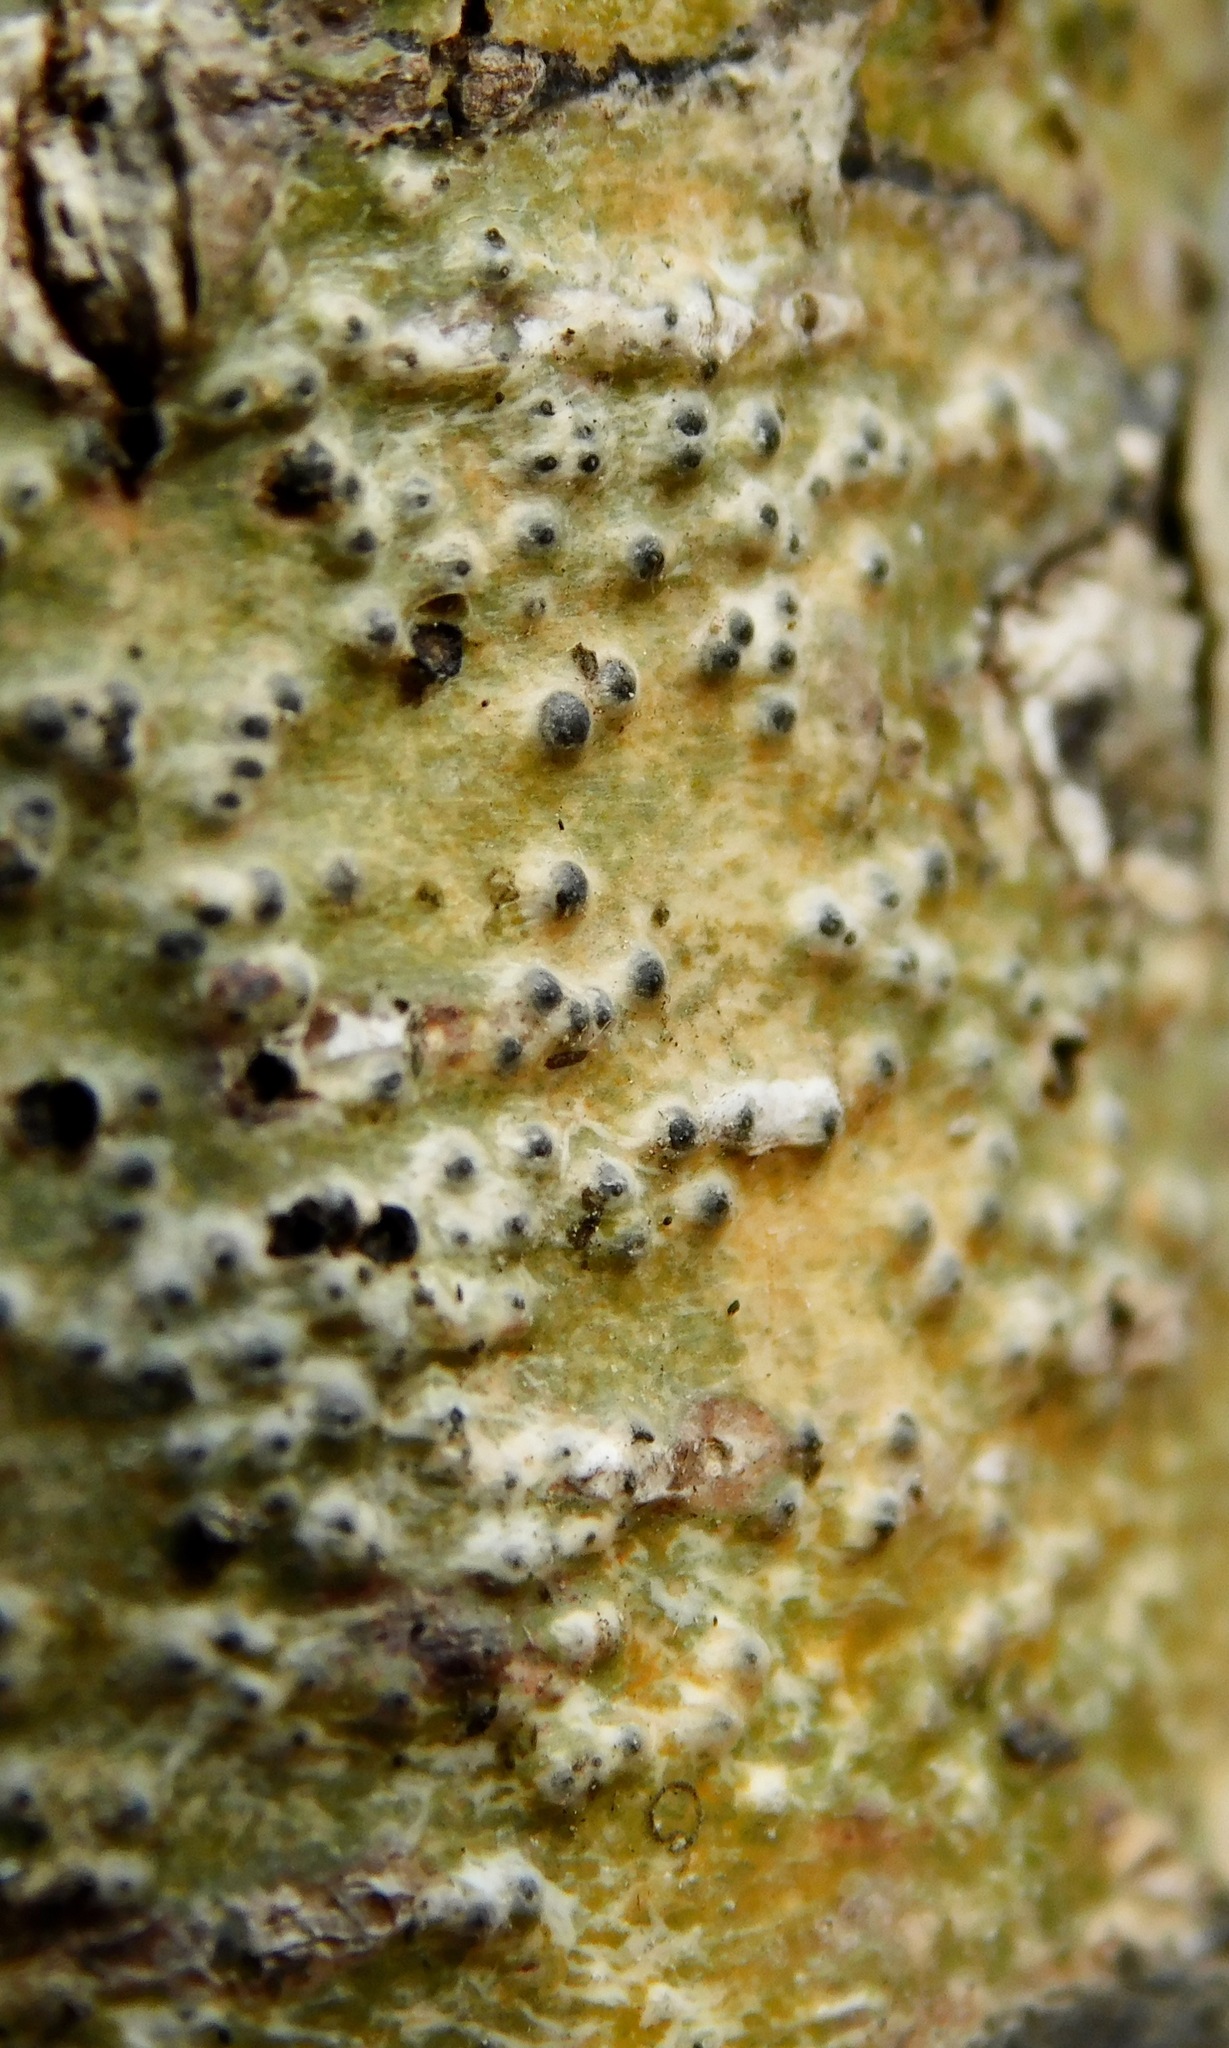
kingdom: Fungi
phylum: Ascomycota
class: Eurotiomycetes
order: Pyrenulales
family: Pyrenulaceae
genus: Anthracothecium
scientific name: Anthracothecium prasinum
